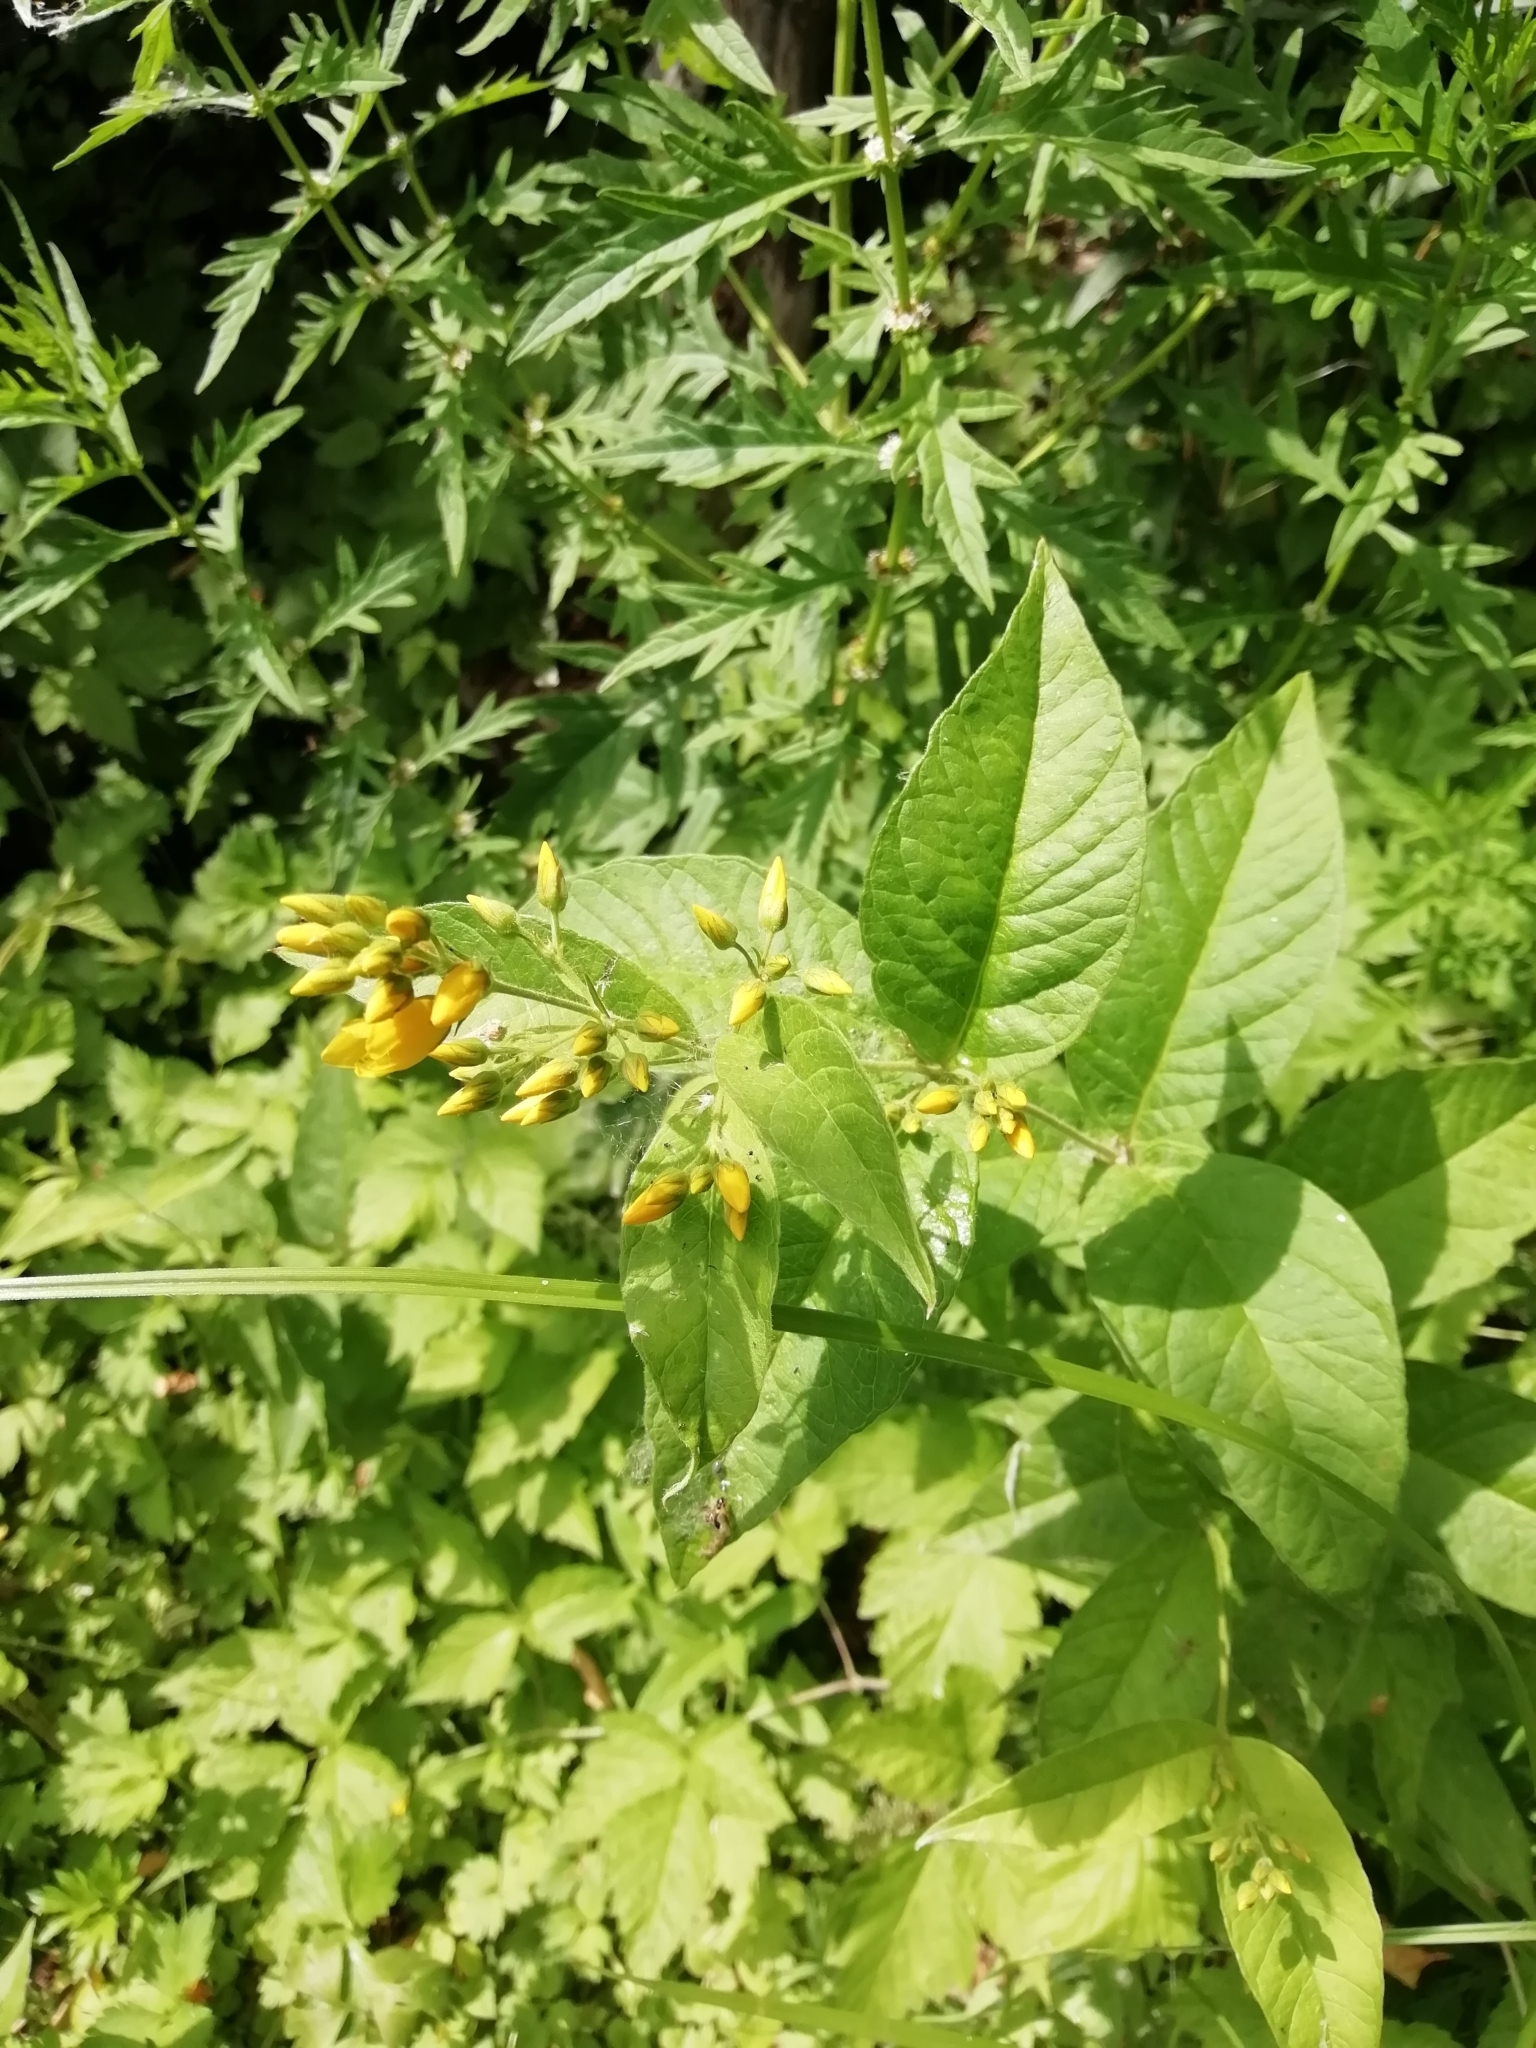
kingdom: Plantae
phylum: Tracheophyta
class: Magnoliopsida
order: Ericales
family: Primulaceae
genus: Lysimachia
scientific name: Lysimachia vulgaris
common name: Yellow loosestrife
